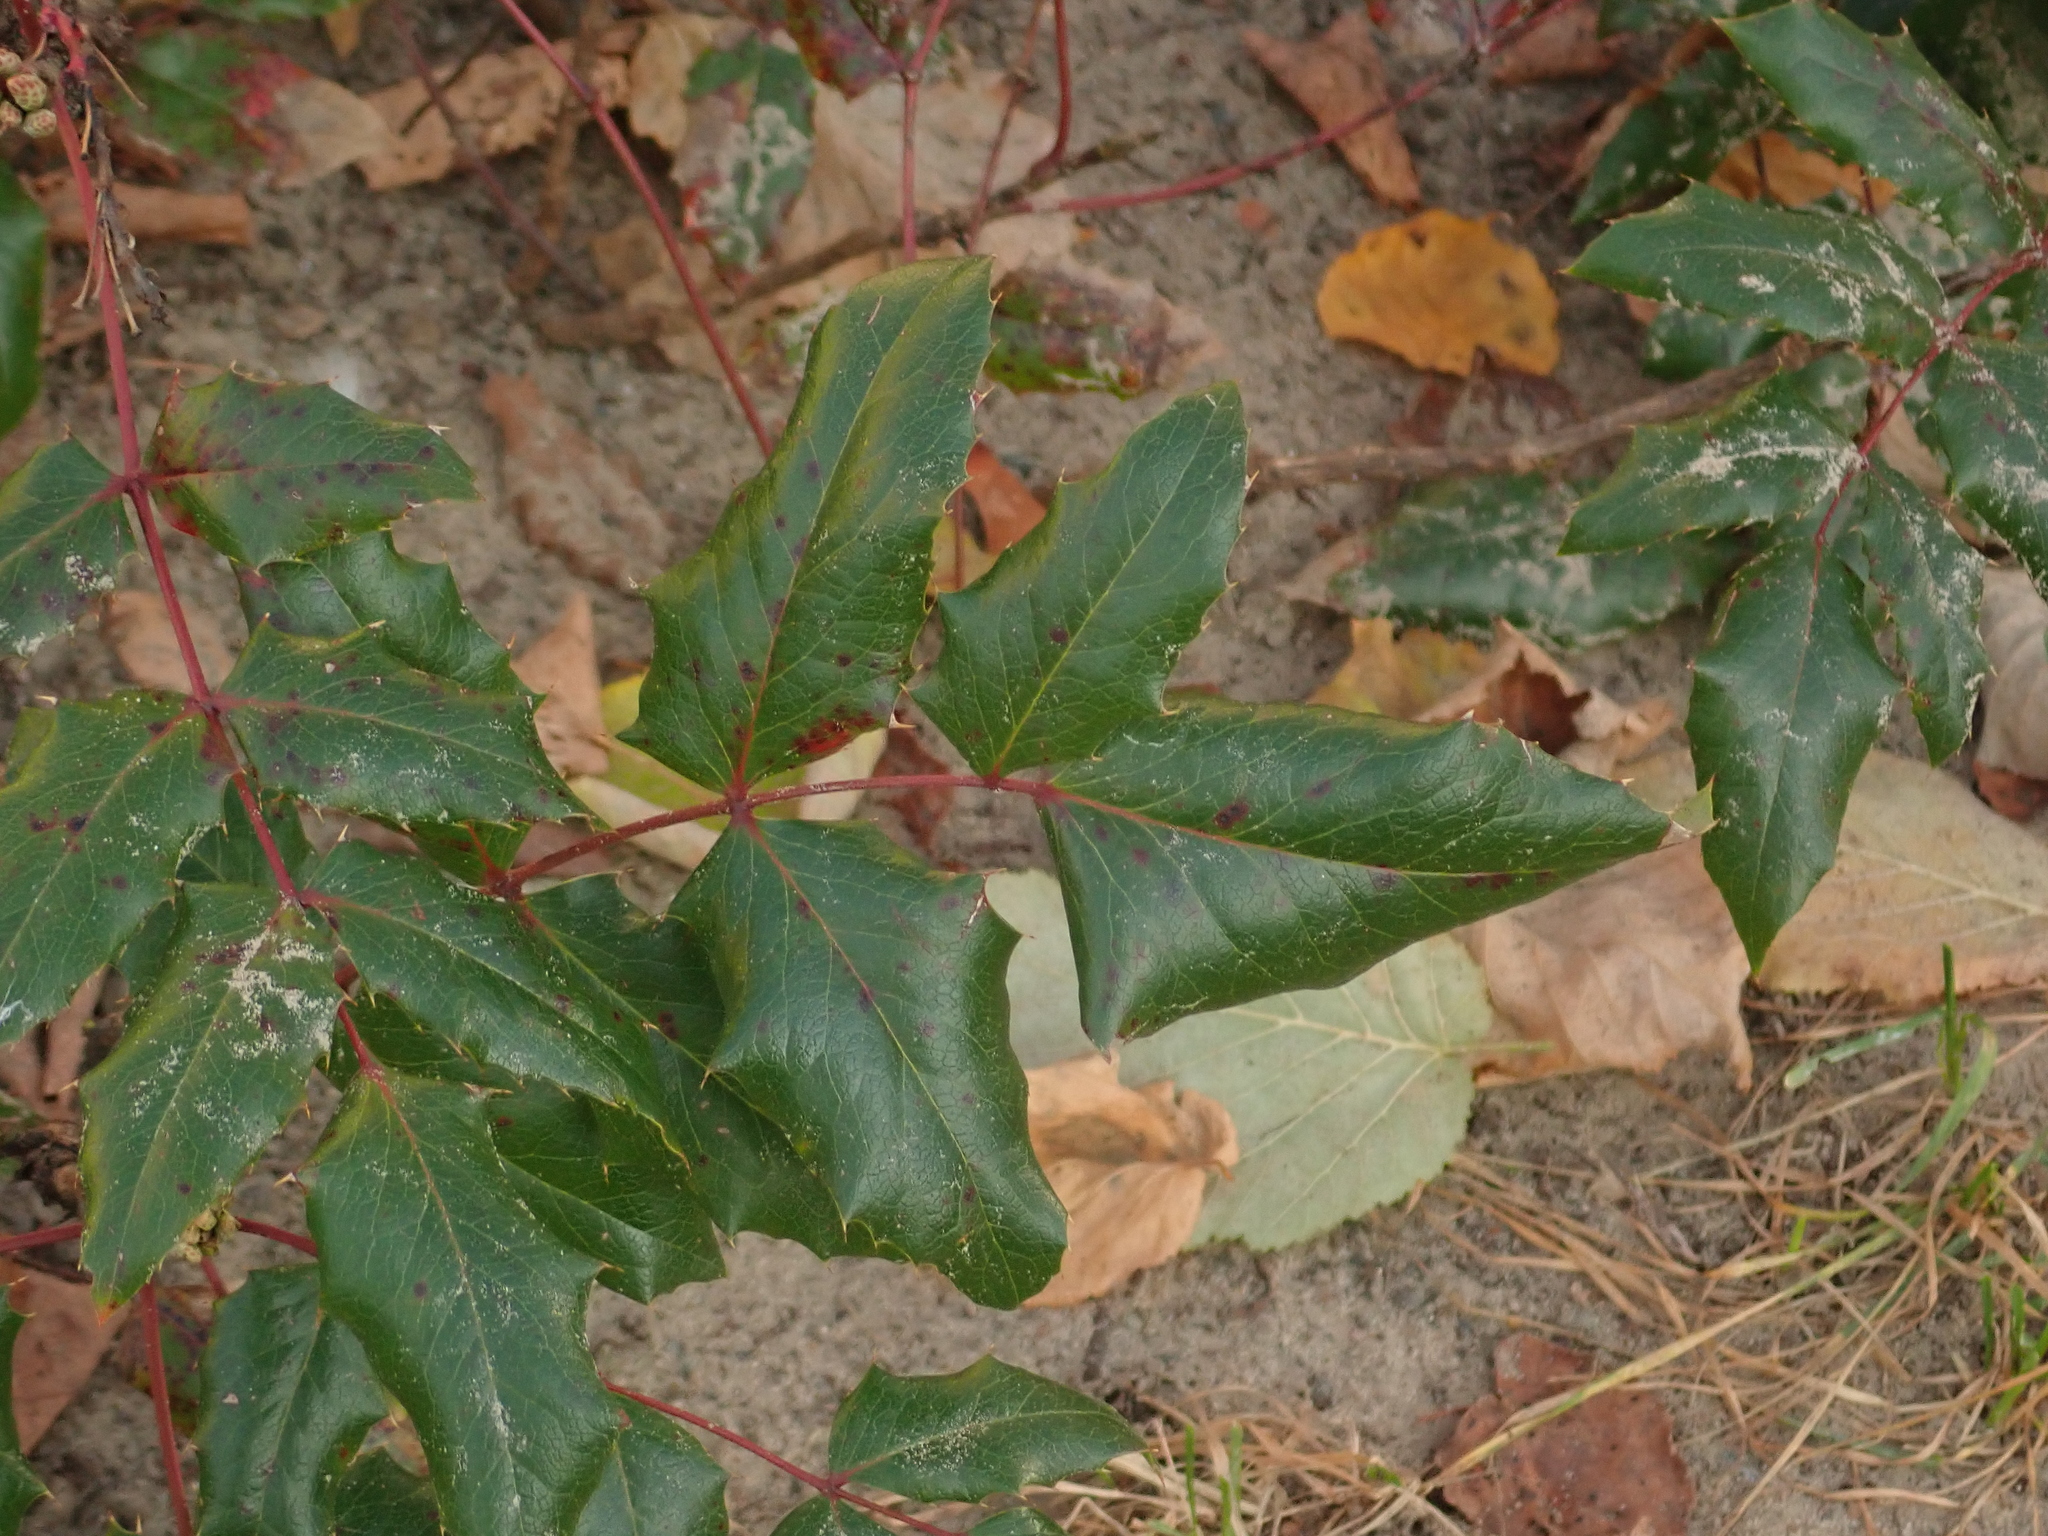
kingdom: Plantae
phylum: Tracheophyta
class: Magnoliopsida
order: Ranunculales
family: Berberidaceae
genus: Mahonia
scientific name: Mahonia aquifolium
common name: Oregon-grape
